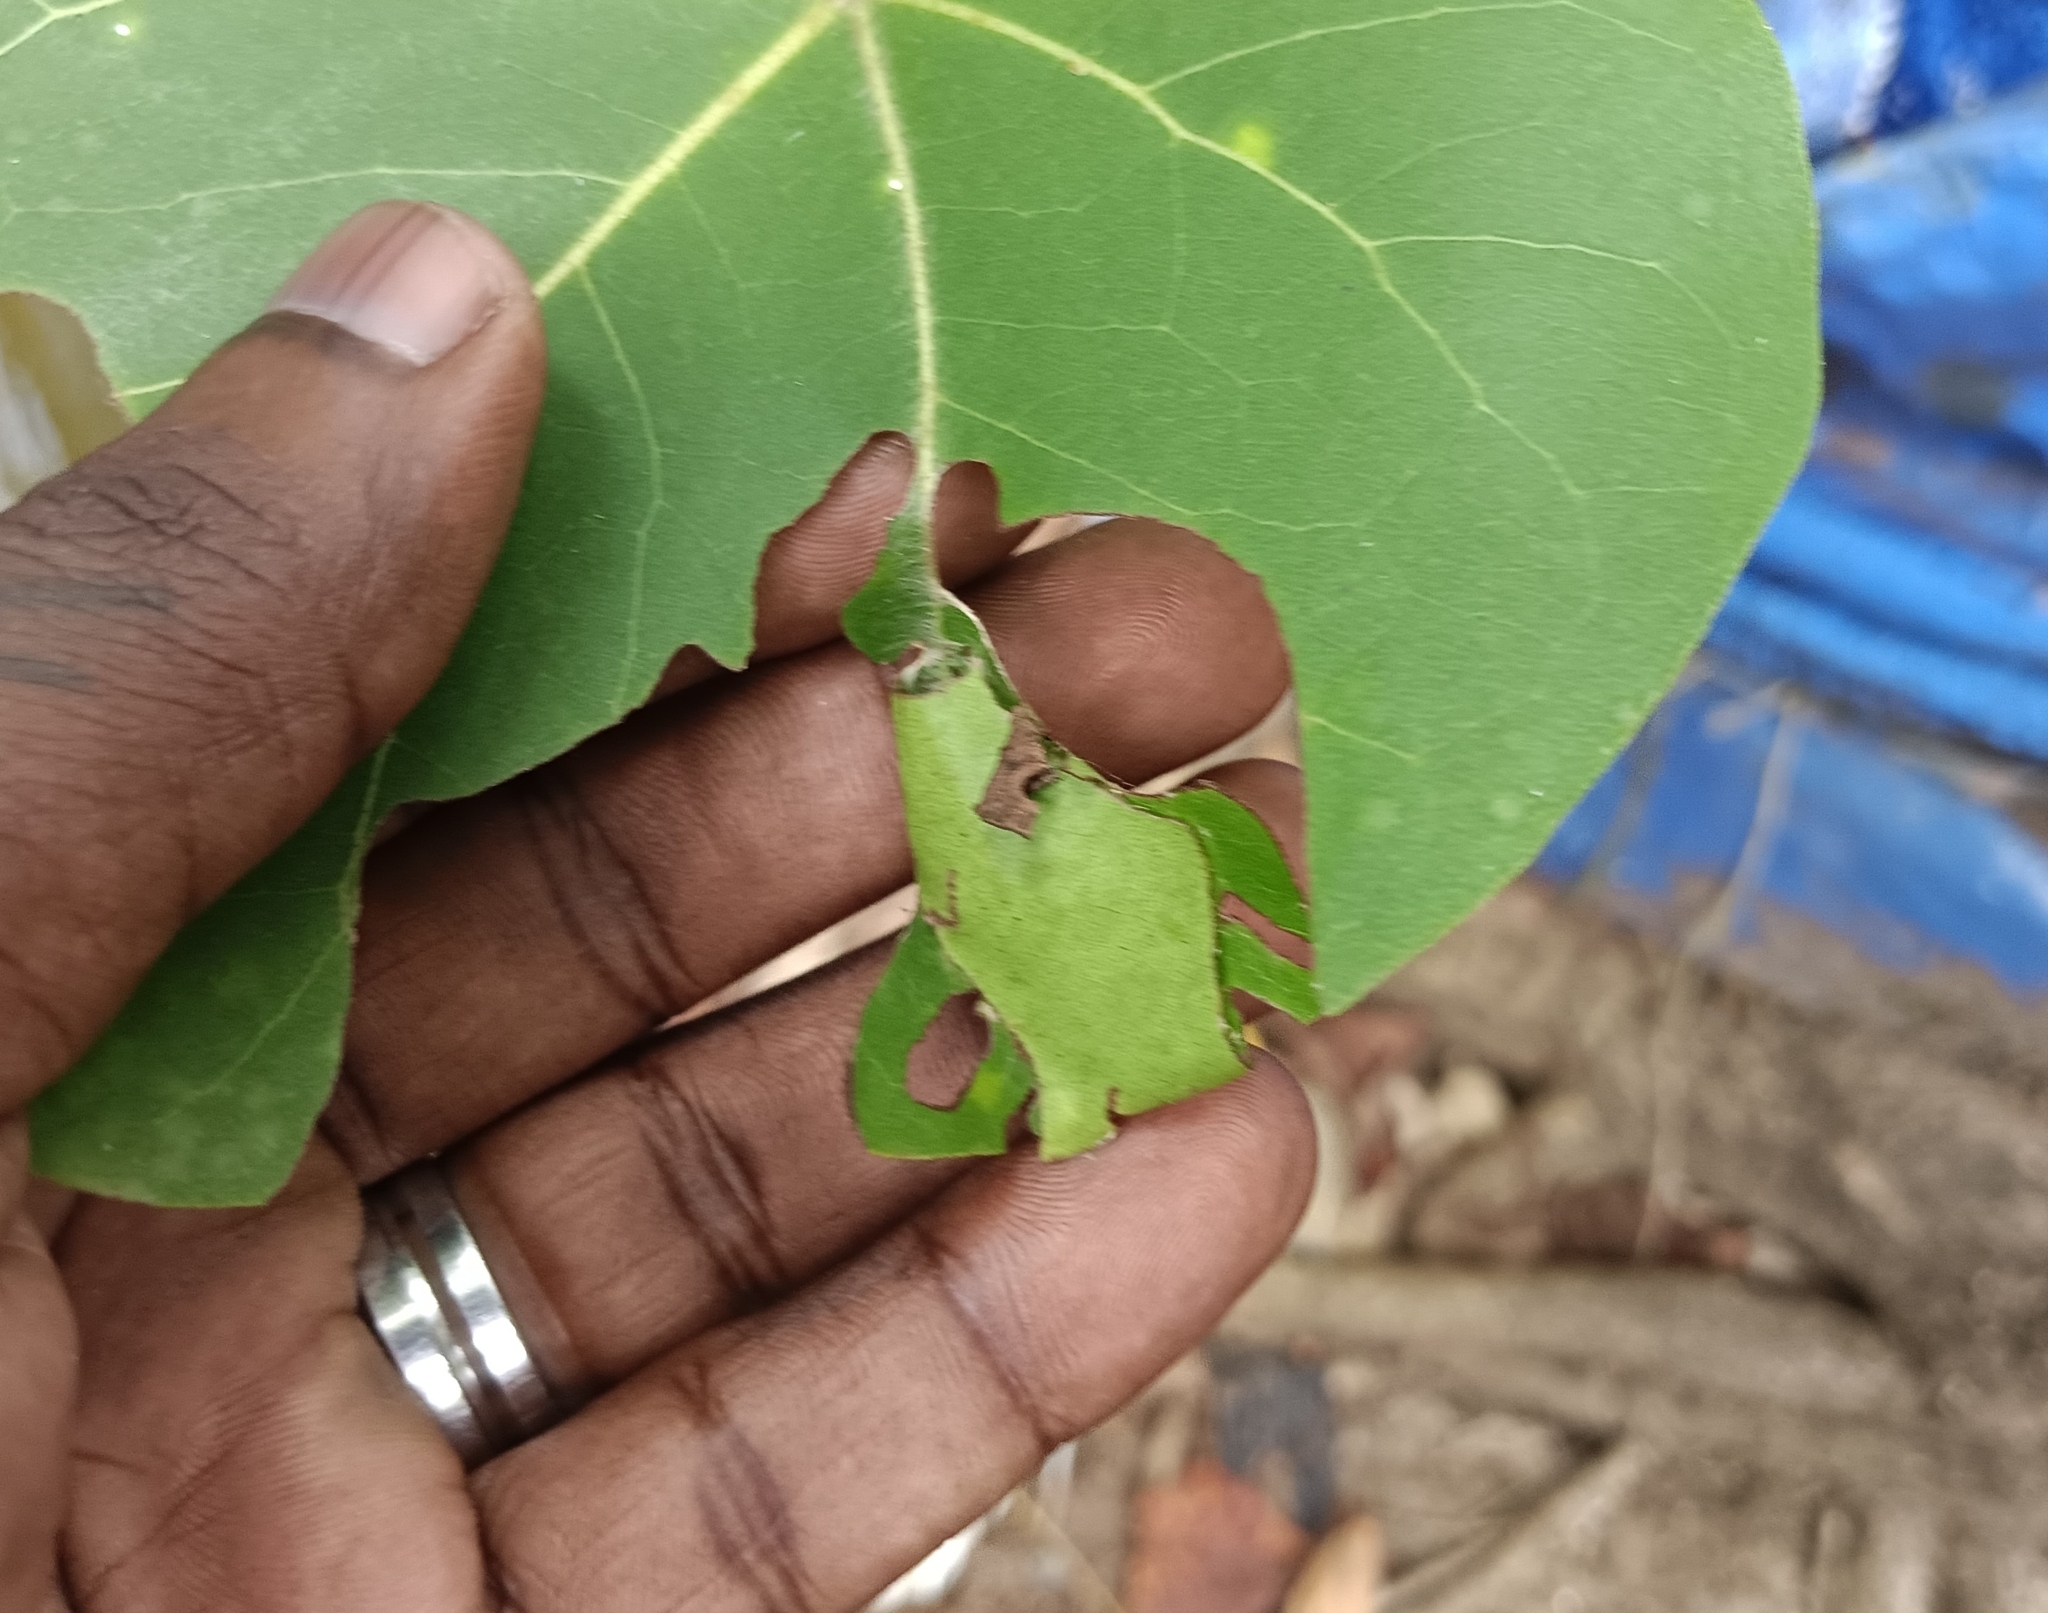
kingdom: Animalia
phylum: Arthropoda
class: Insecta
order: Lepidoptera
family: Hesperiidae
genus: Coladenia
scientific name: Coladenia
